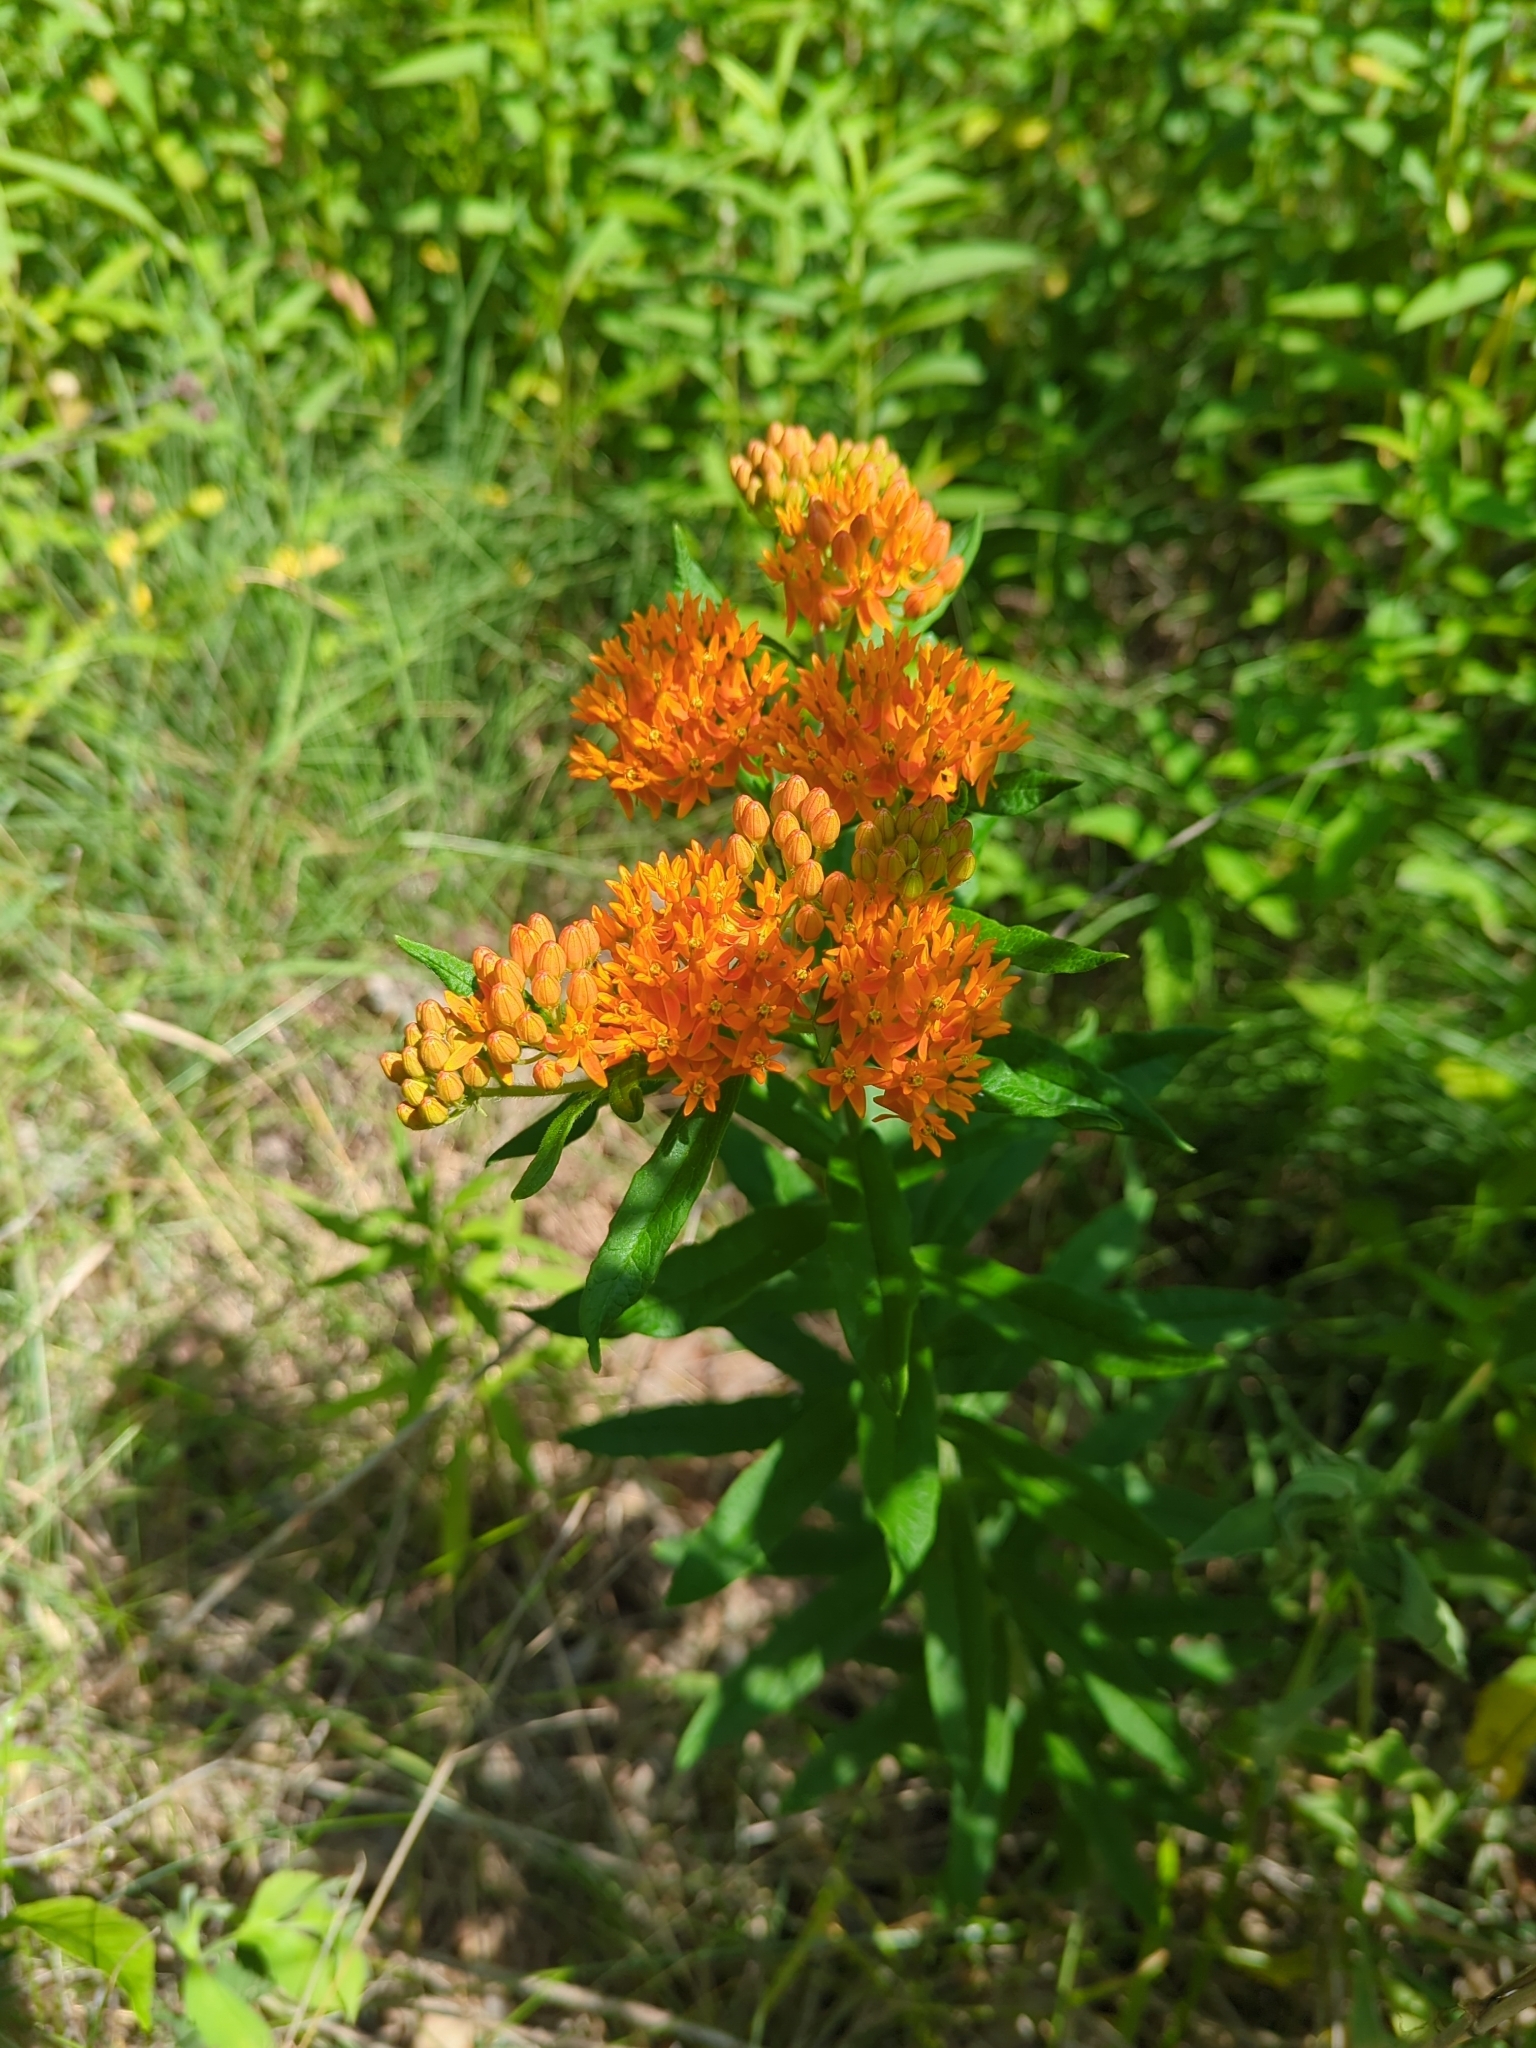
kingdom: Plantae
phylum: Tracheophyta
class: Magnoliopsida
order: Gentianales
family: Apocynaceae
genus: Asclepias
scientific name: Asclepias tuberosa
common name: Butterfly milkweed
